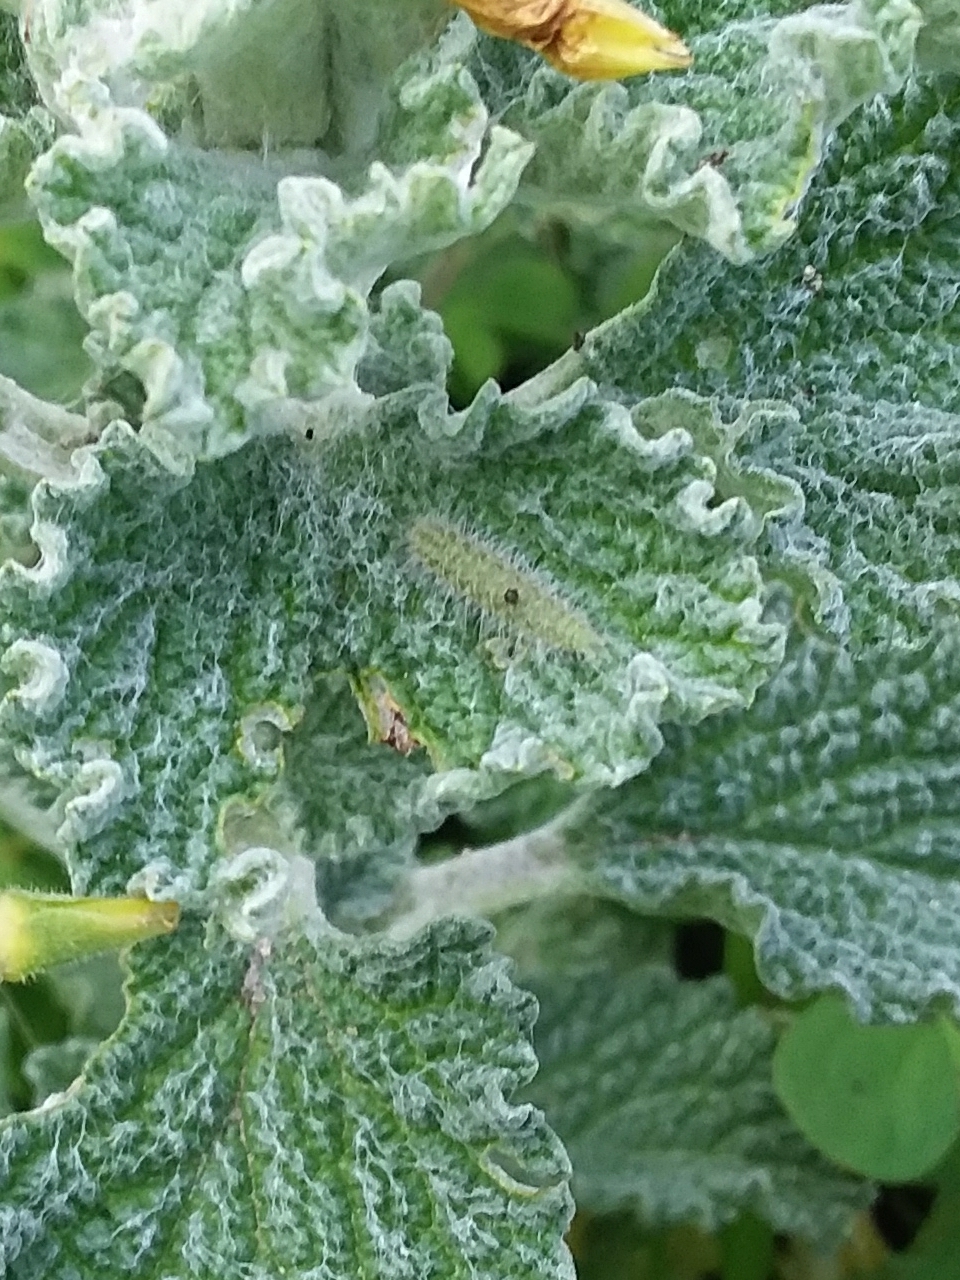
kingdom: Animalia
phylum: Arthropoda
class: Insecta
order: Lepidoptera
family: Pterophoridae
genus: Wheeleria
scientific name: Wheeleria spilodactylus
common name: Horehound plume
